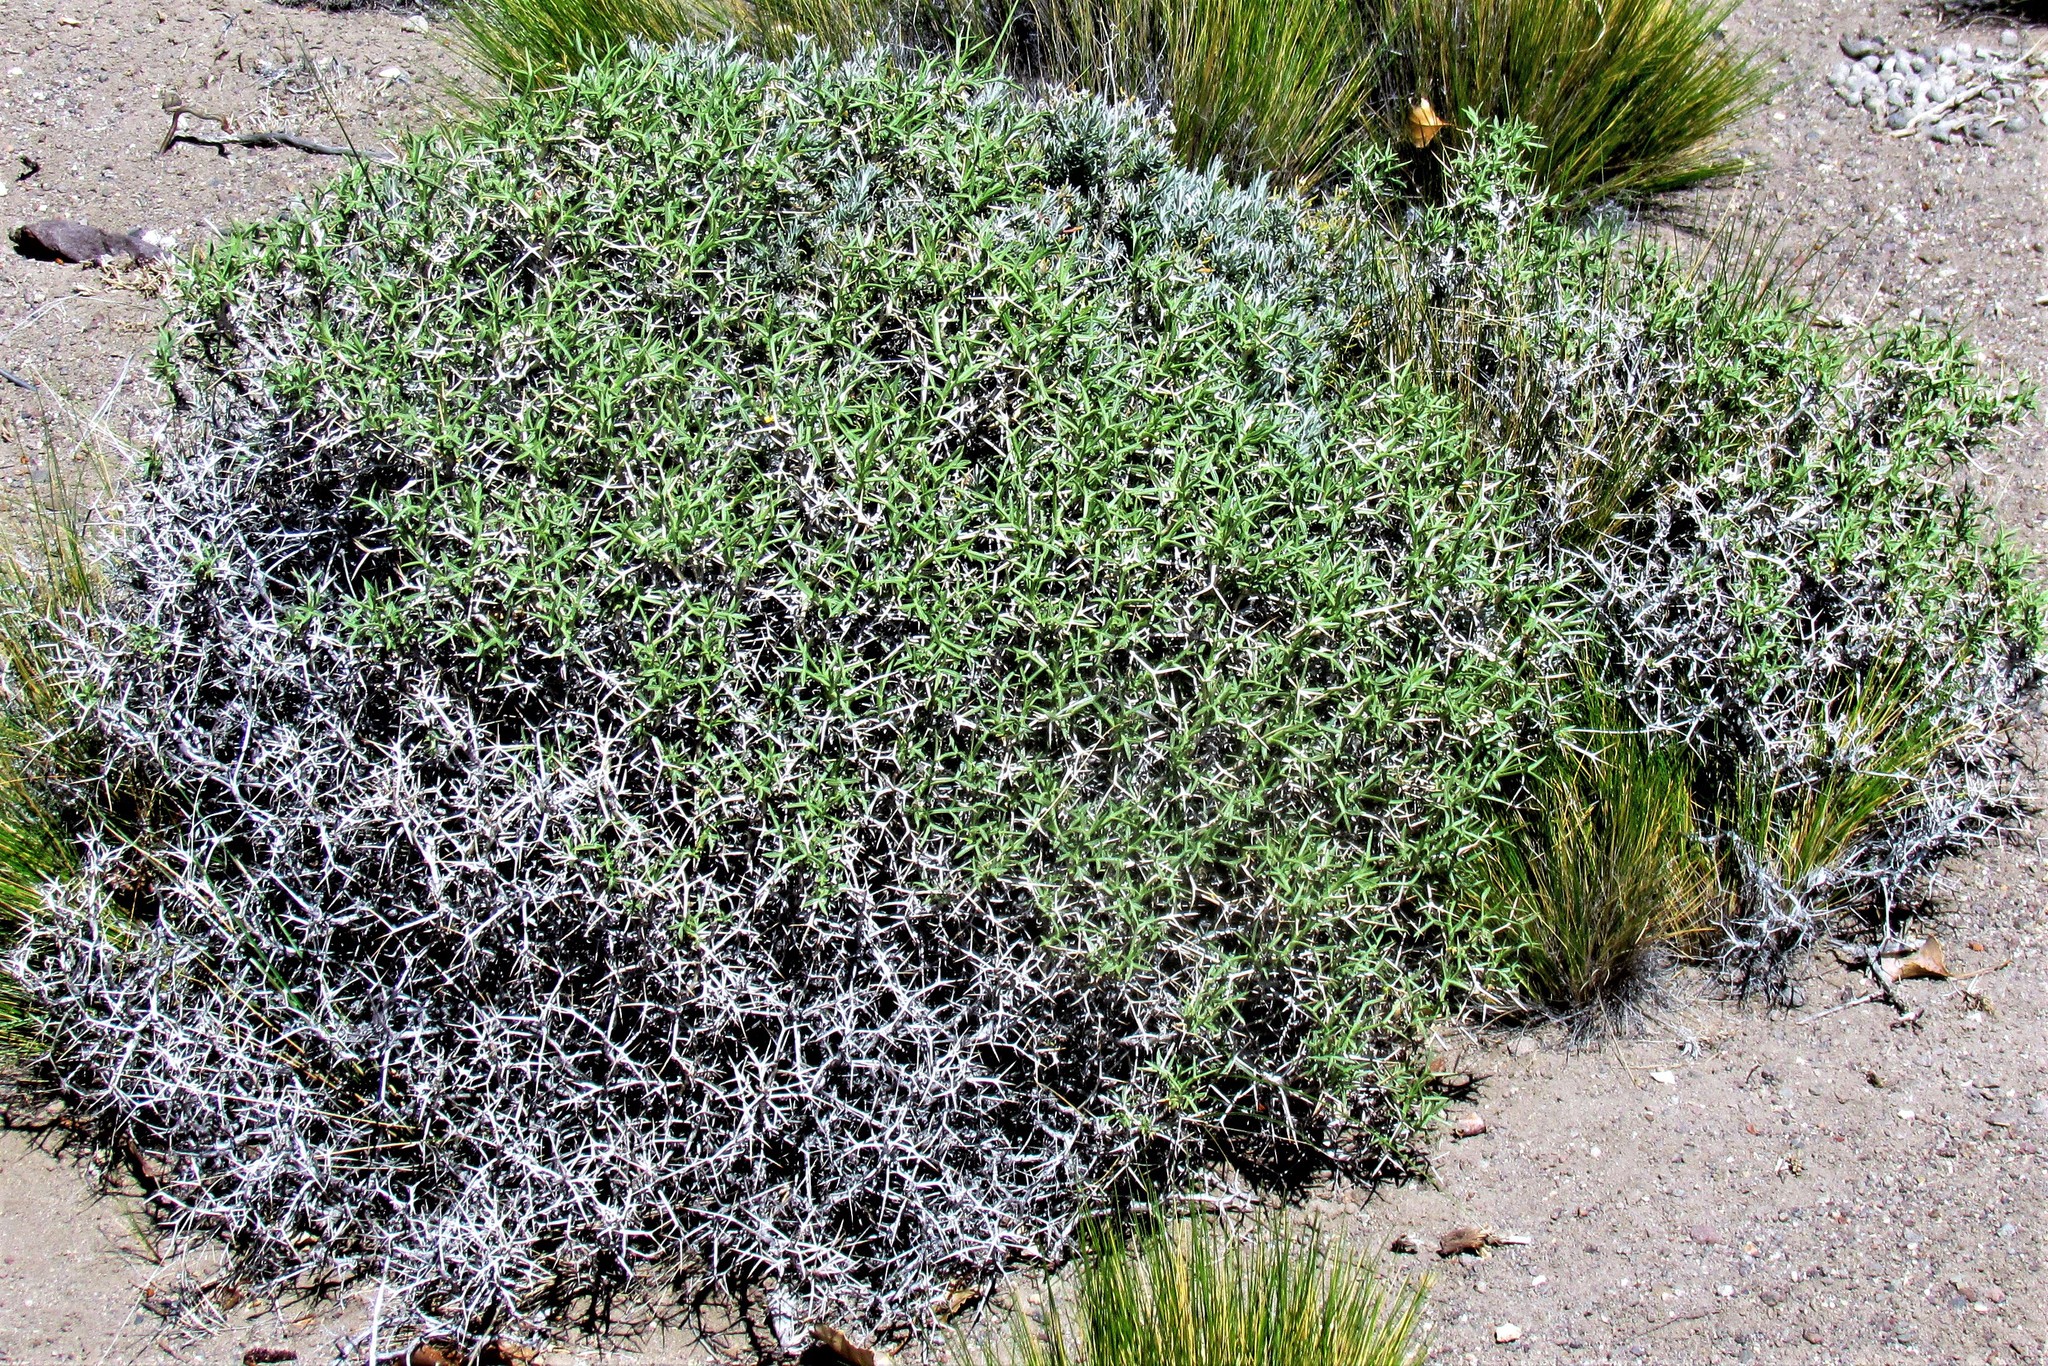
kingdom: Plantae
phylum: Tracheophyta
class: Magnoliopsida
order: Apiales
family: Apiaceae
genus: Azorella
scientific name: Azorella prolifera
